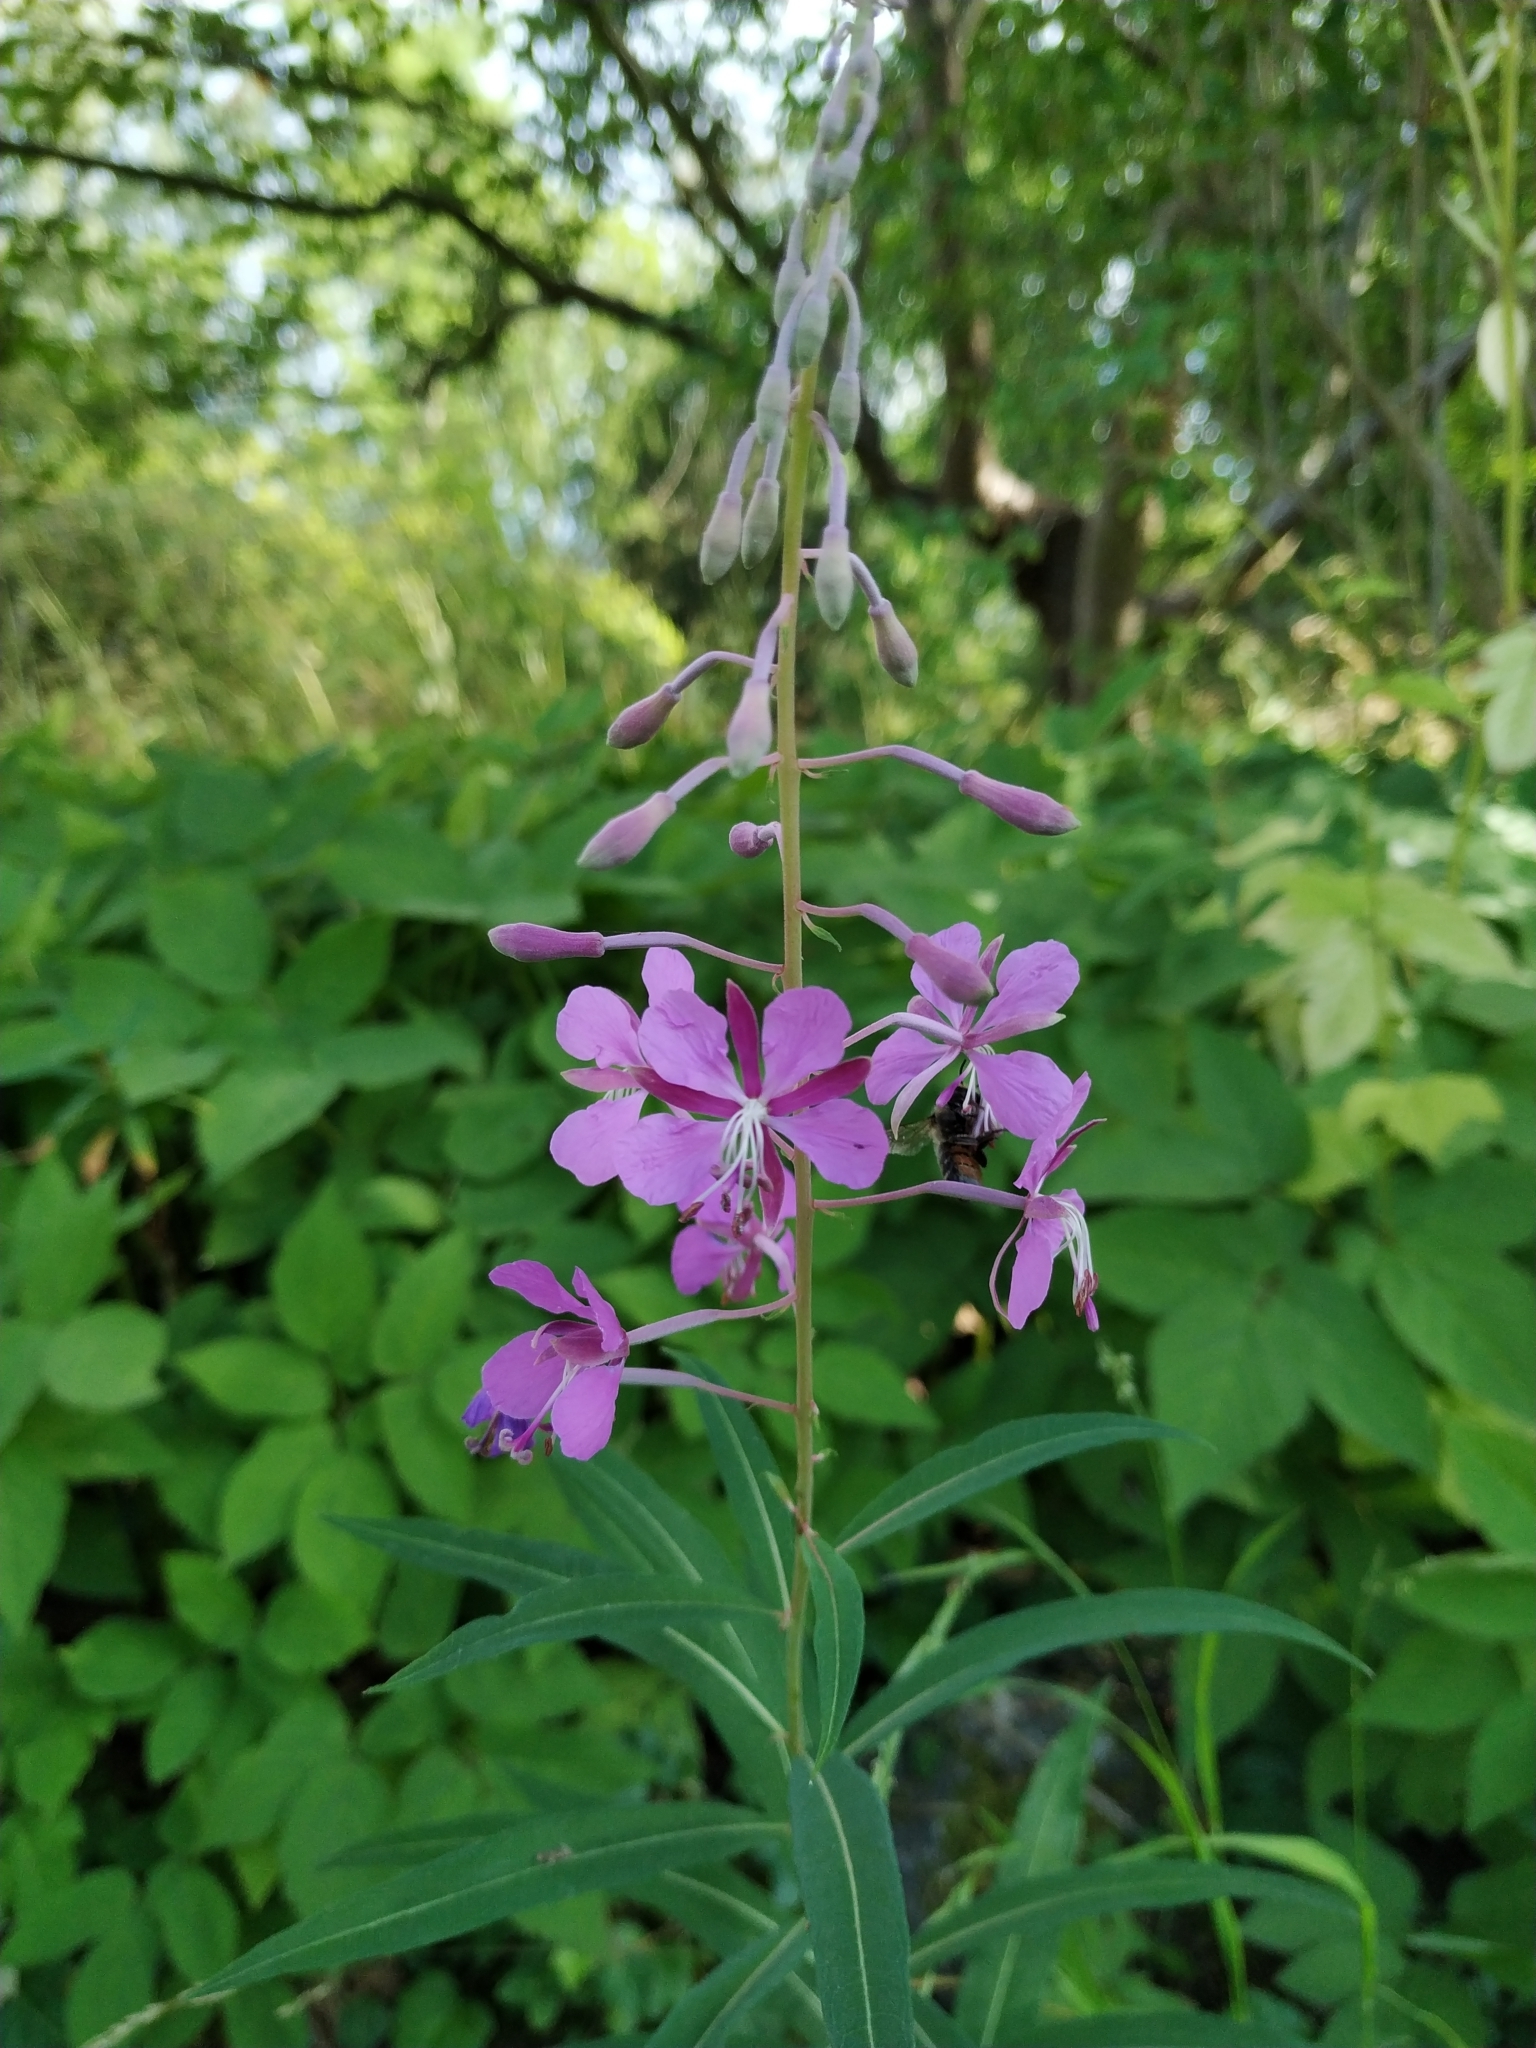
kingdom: Plantae
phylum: Tracheophyta
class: Magnoliopsida
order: Myrtales
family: Onagraceae
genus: Chamaenerion
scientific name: Chamaenerion angustifolium
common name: Fireweed
